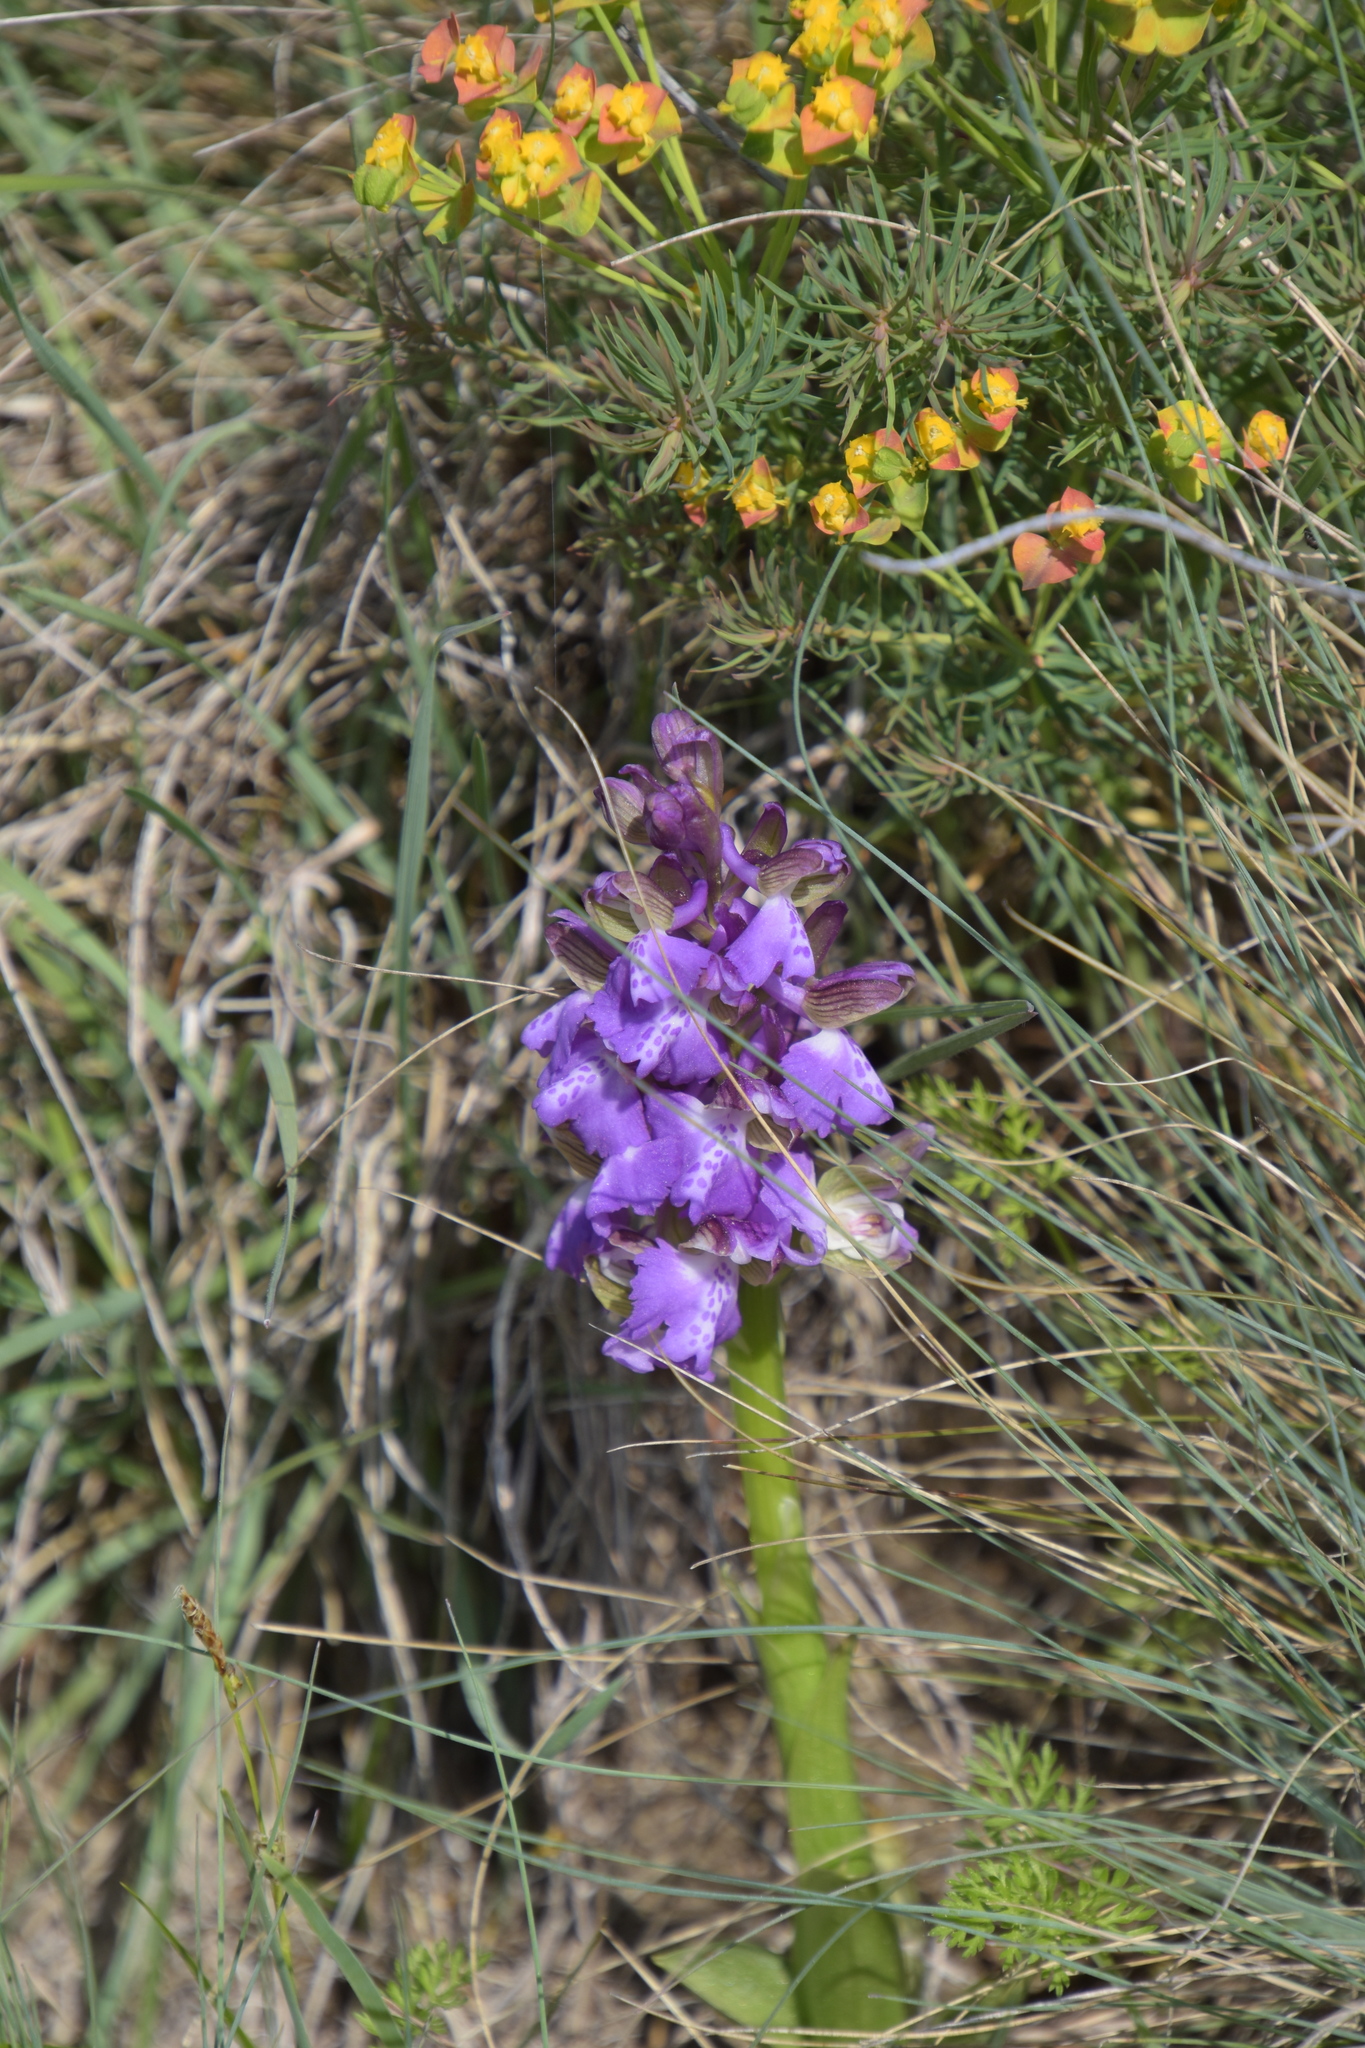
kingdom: Plantae
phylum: Tracheophyta
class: Liliopsida
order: Asparagales
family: Orchidaceae
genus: Anacamptis
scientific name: Anacamptis morio
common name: Green-winged orchid
